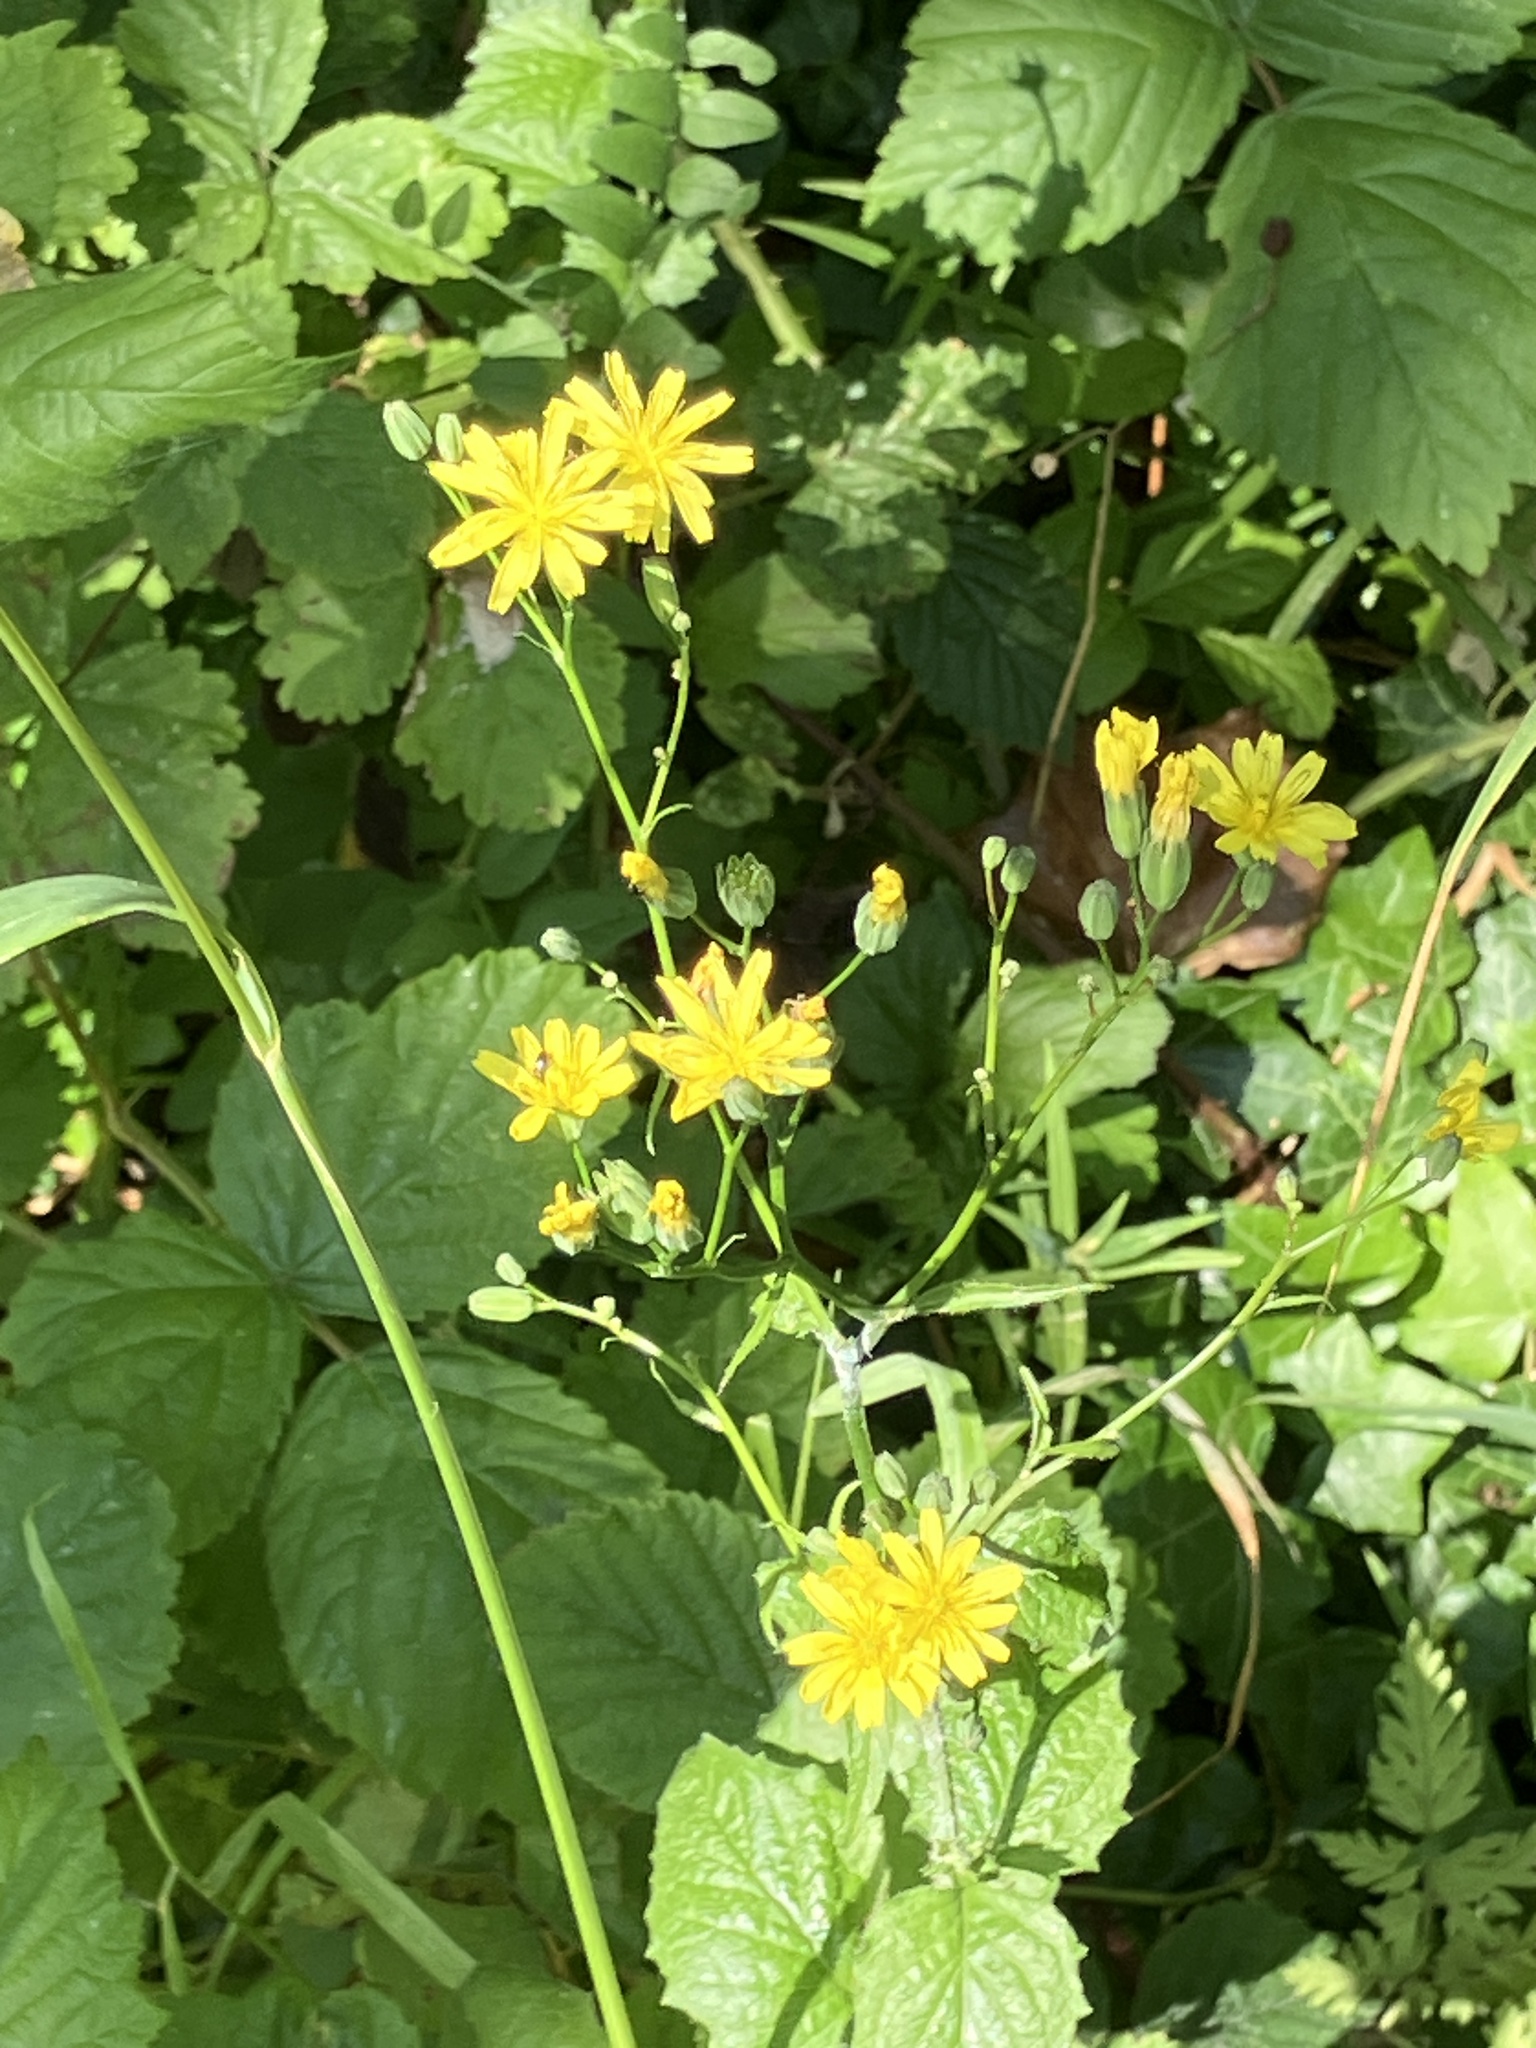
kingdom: Plantae
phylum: Tracheophyta
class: Magnoliopsida
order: Asterales
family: Asteraceae
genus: Lapsana
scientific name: Lapsana communis
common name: Nipplewort
